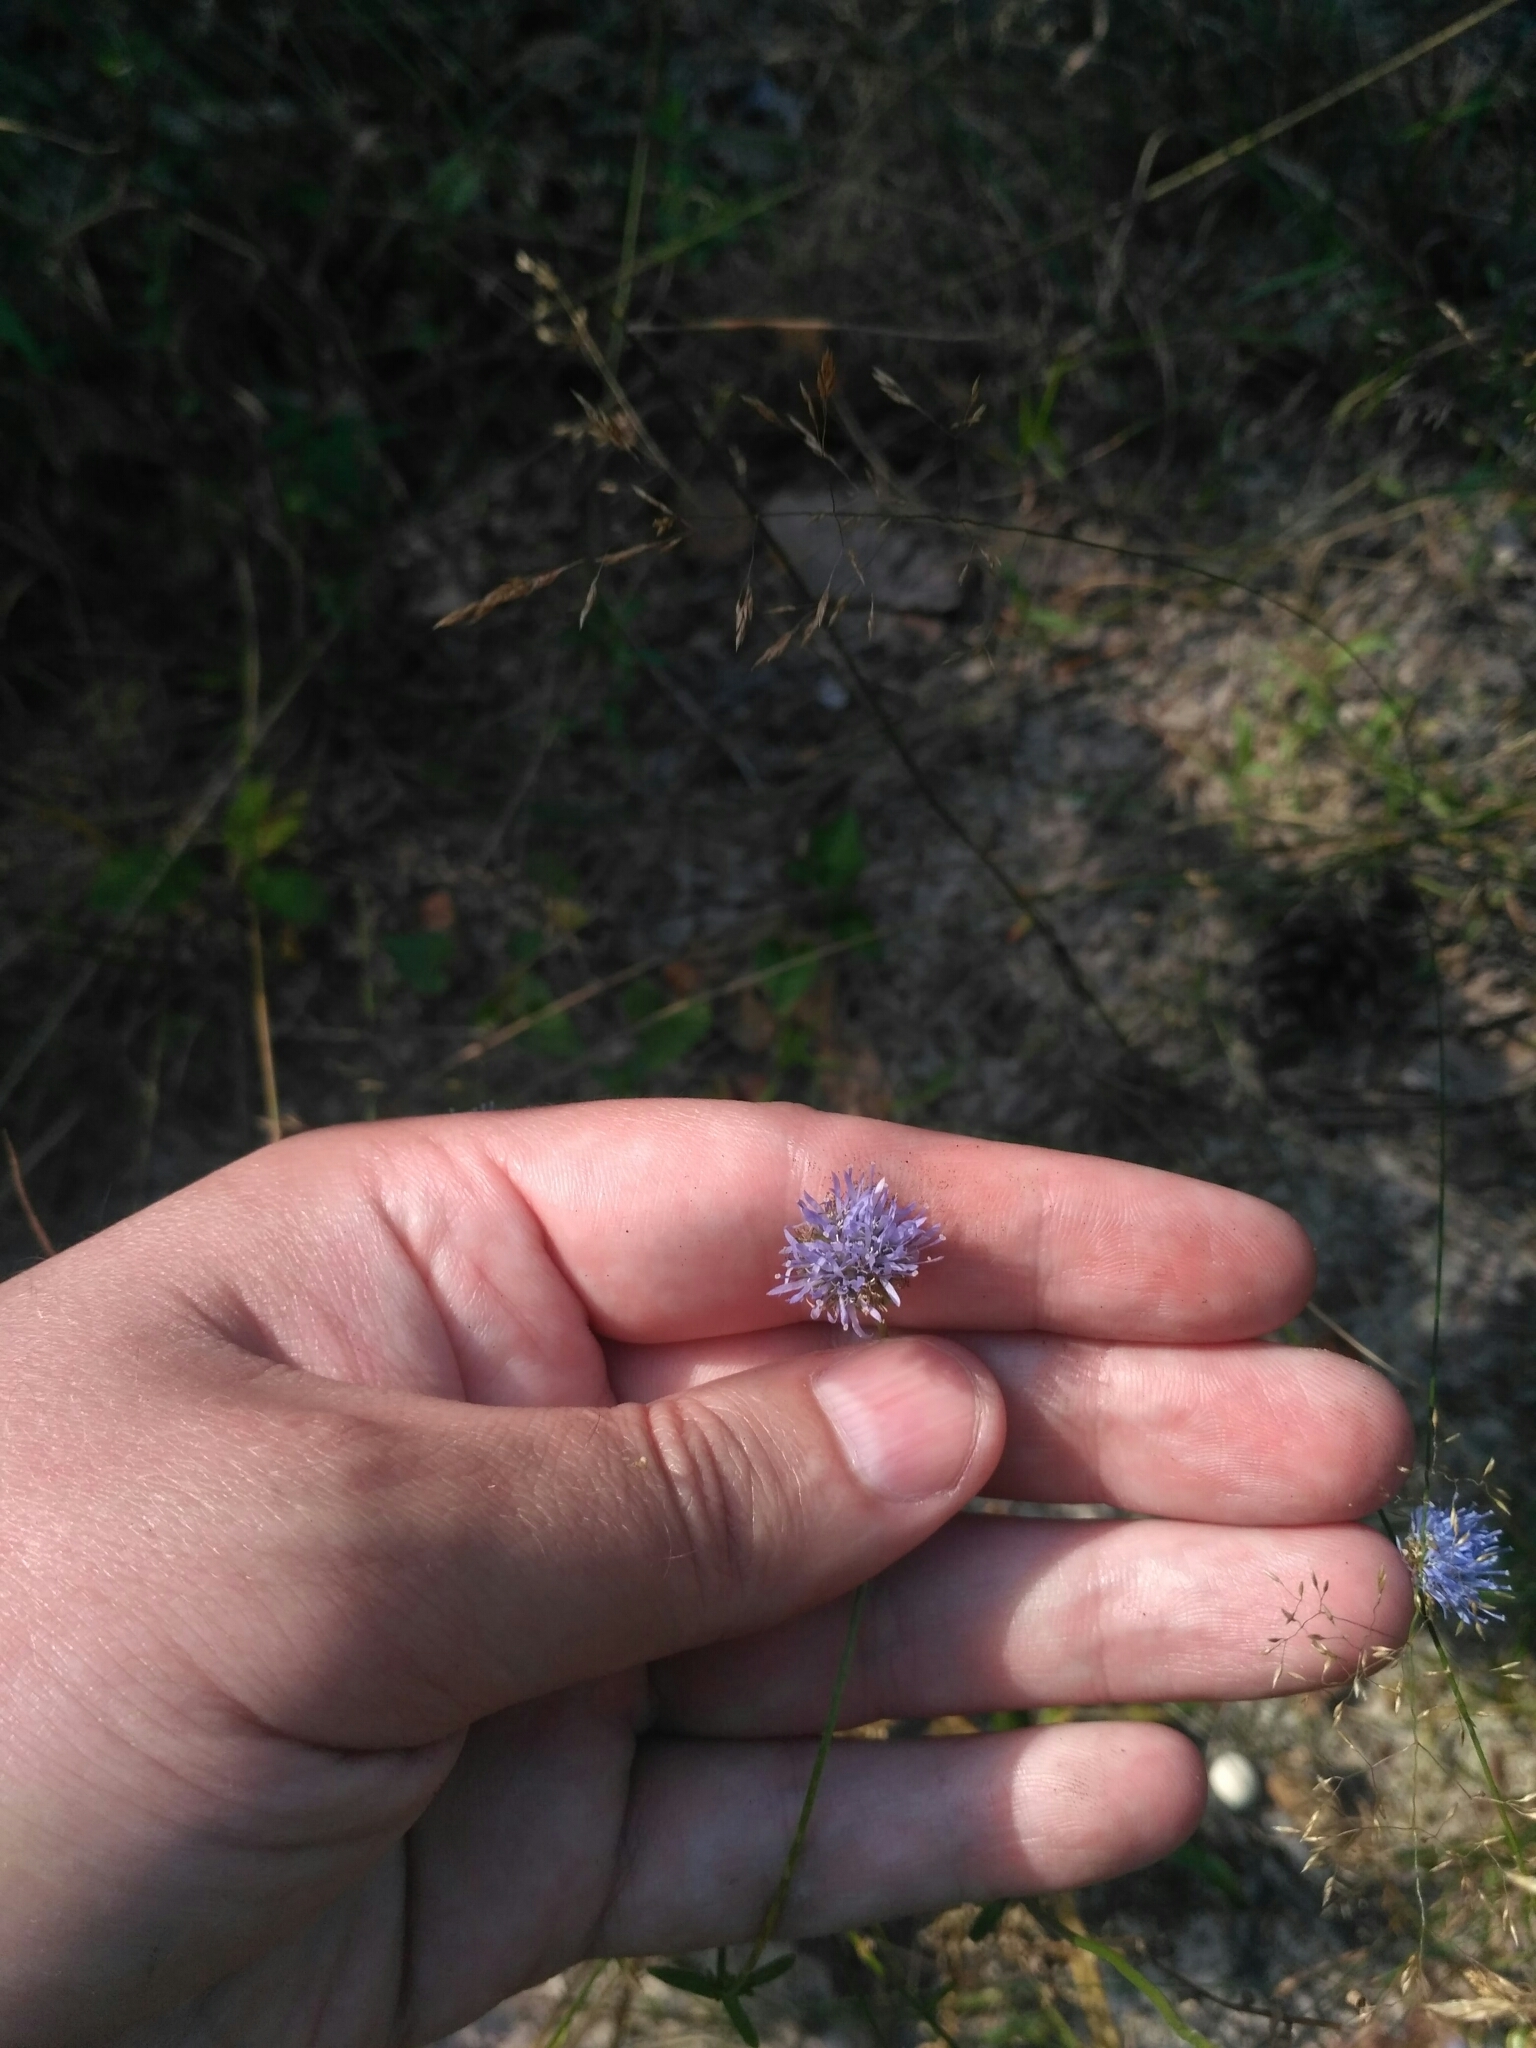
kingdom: Plantae
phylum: Tracheophyta
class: Magnoliopsida
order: Asterales
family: Campanulaceae
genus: Jasione
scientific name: Jasione montana
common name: Sheep's-bit
